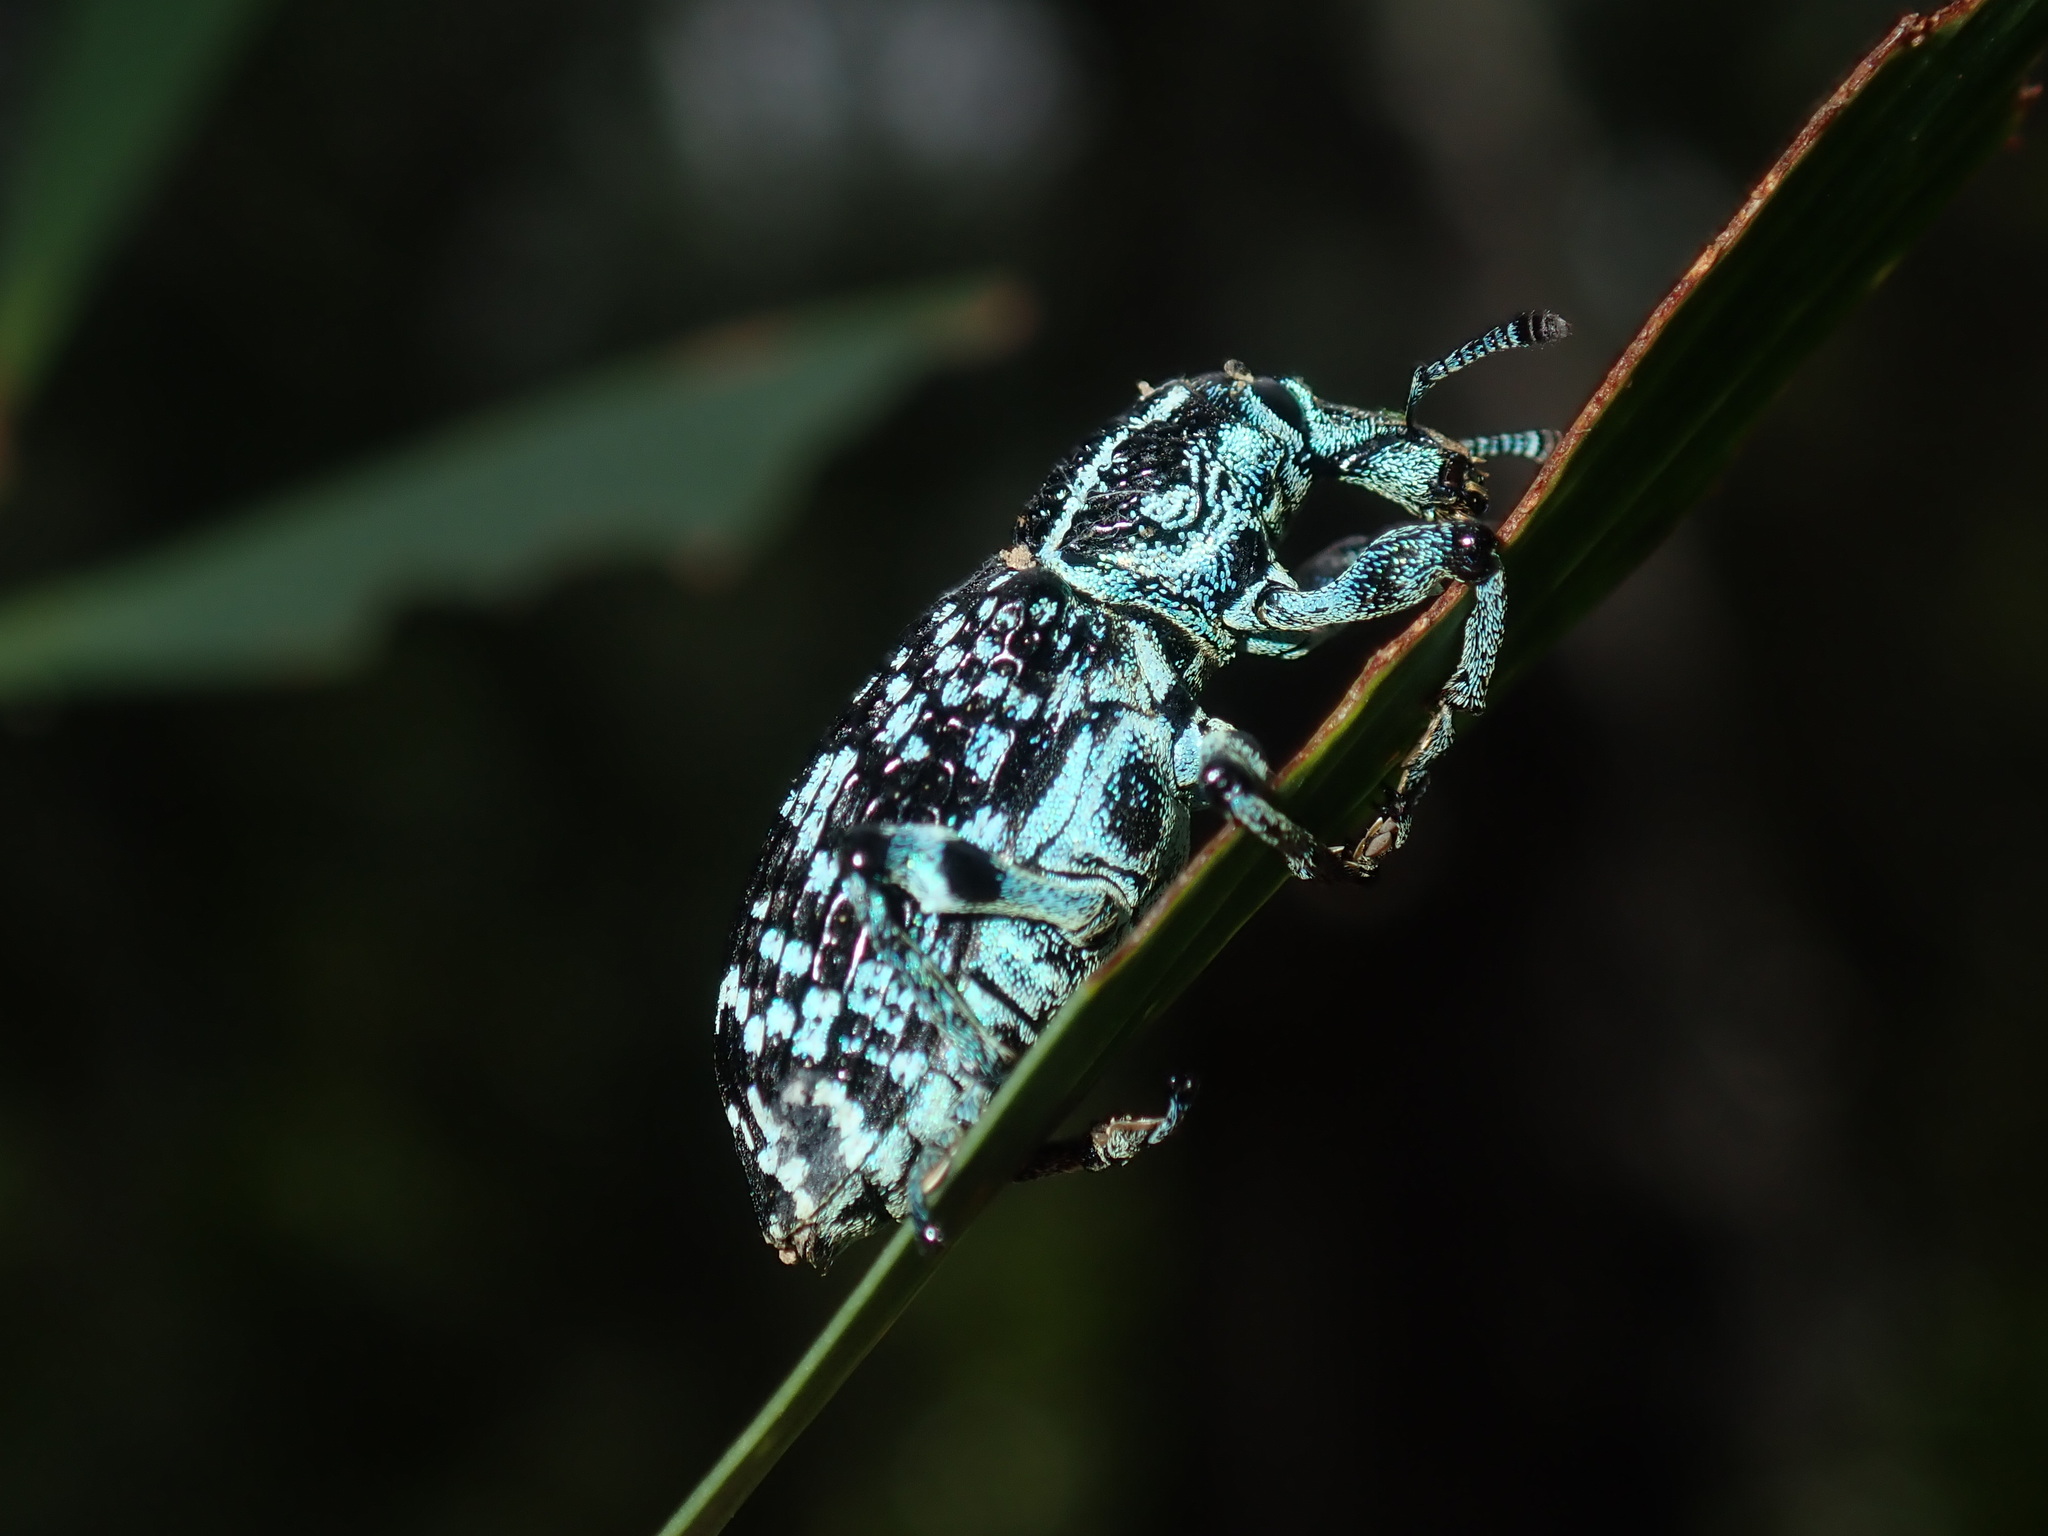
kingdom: Animalia
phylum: Arthropoda
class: Insecta
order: Coleoptera
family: Curculionidae
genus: Chrysolopus
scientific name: Chrysolopus spectabilis
